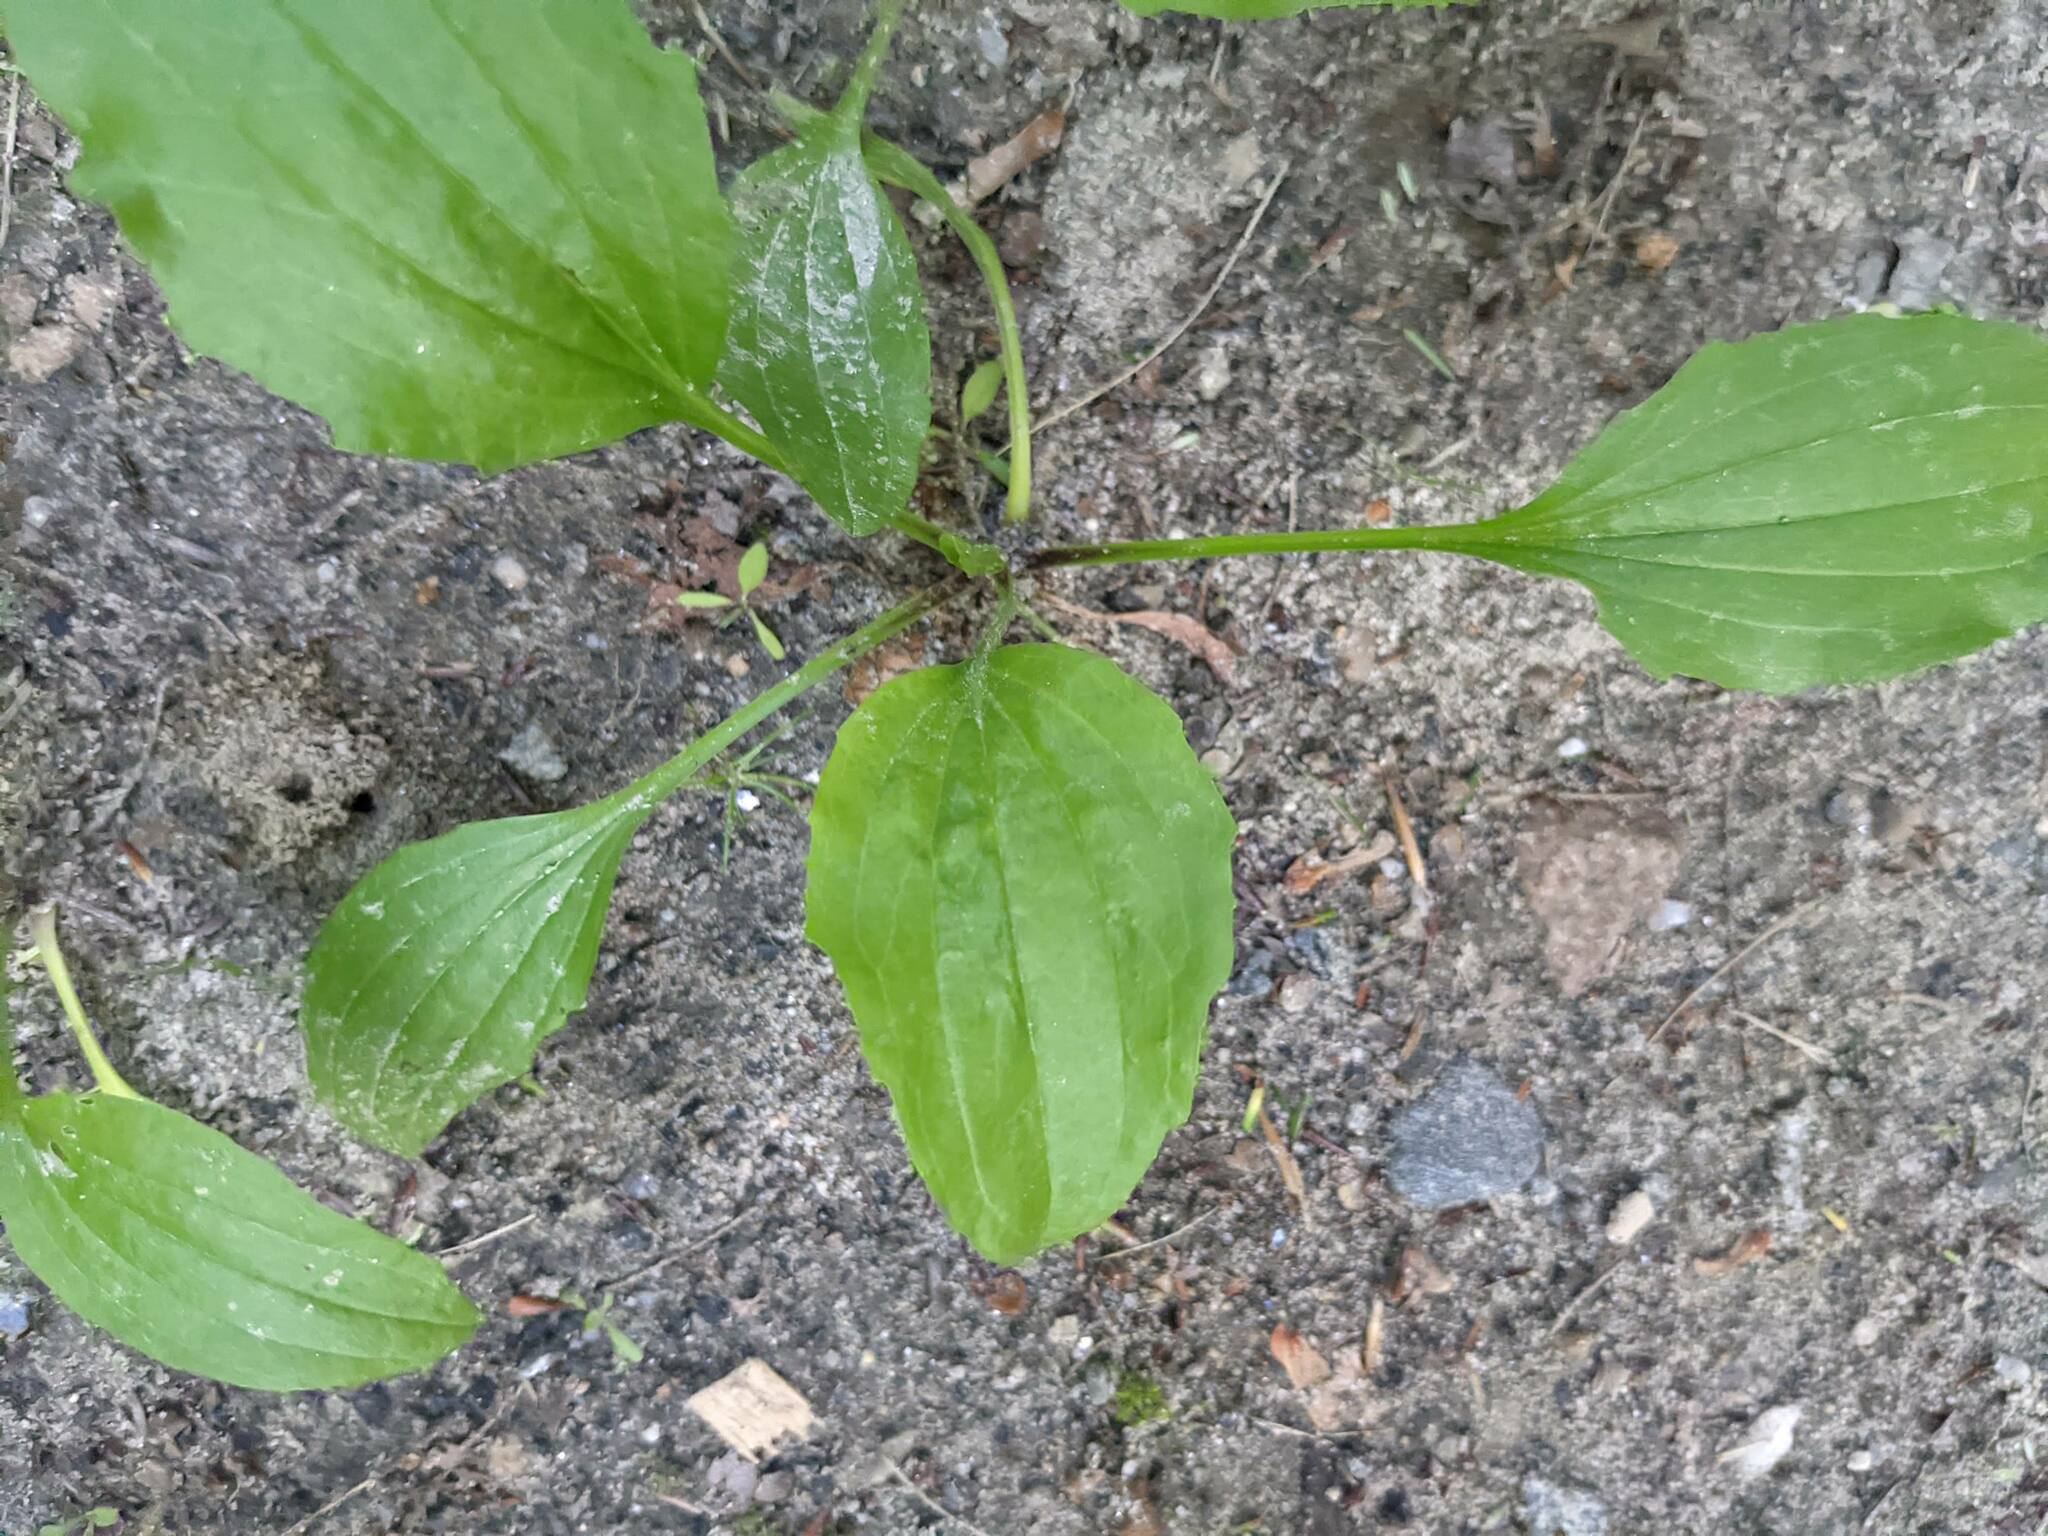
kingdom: Plantae
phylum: Tracheophyta
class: Magnoliopsida
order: Lamiales
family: Plantaginaceae
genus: Plantago
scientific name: Plantago rugelii
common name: American plantain
